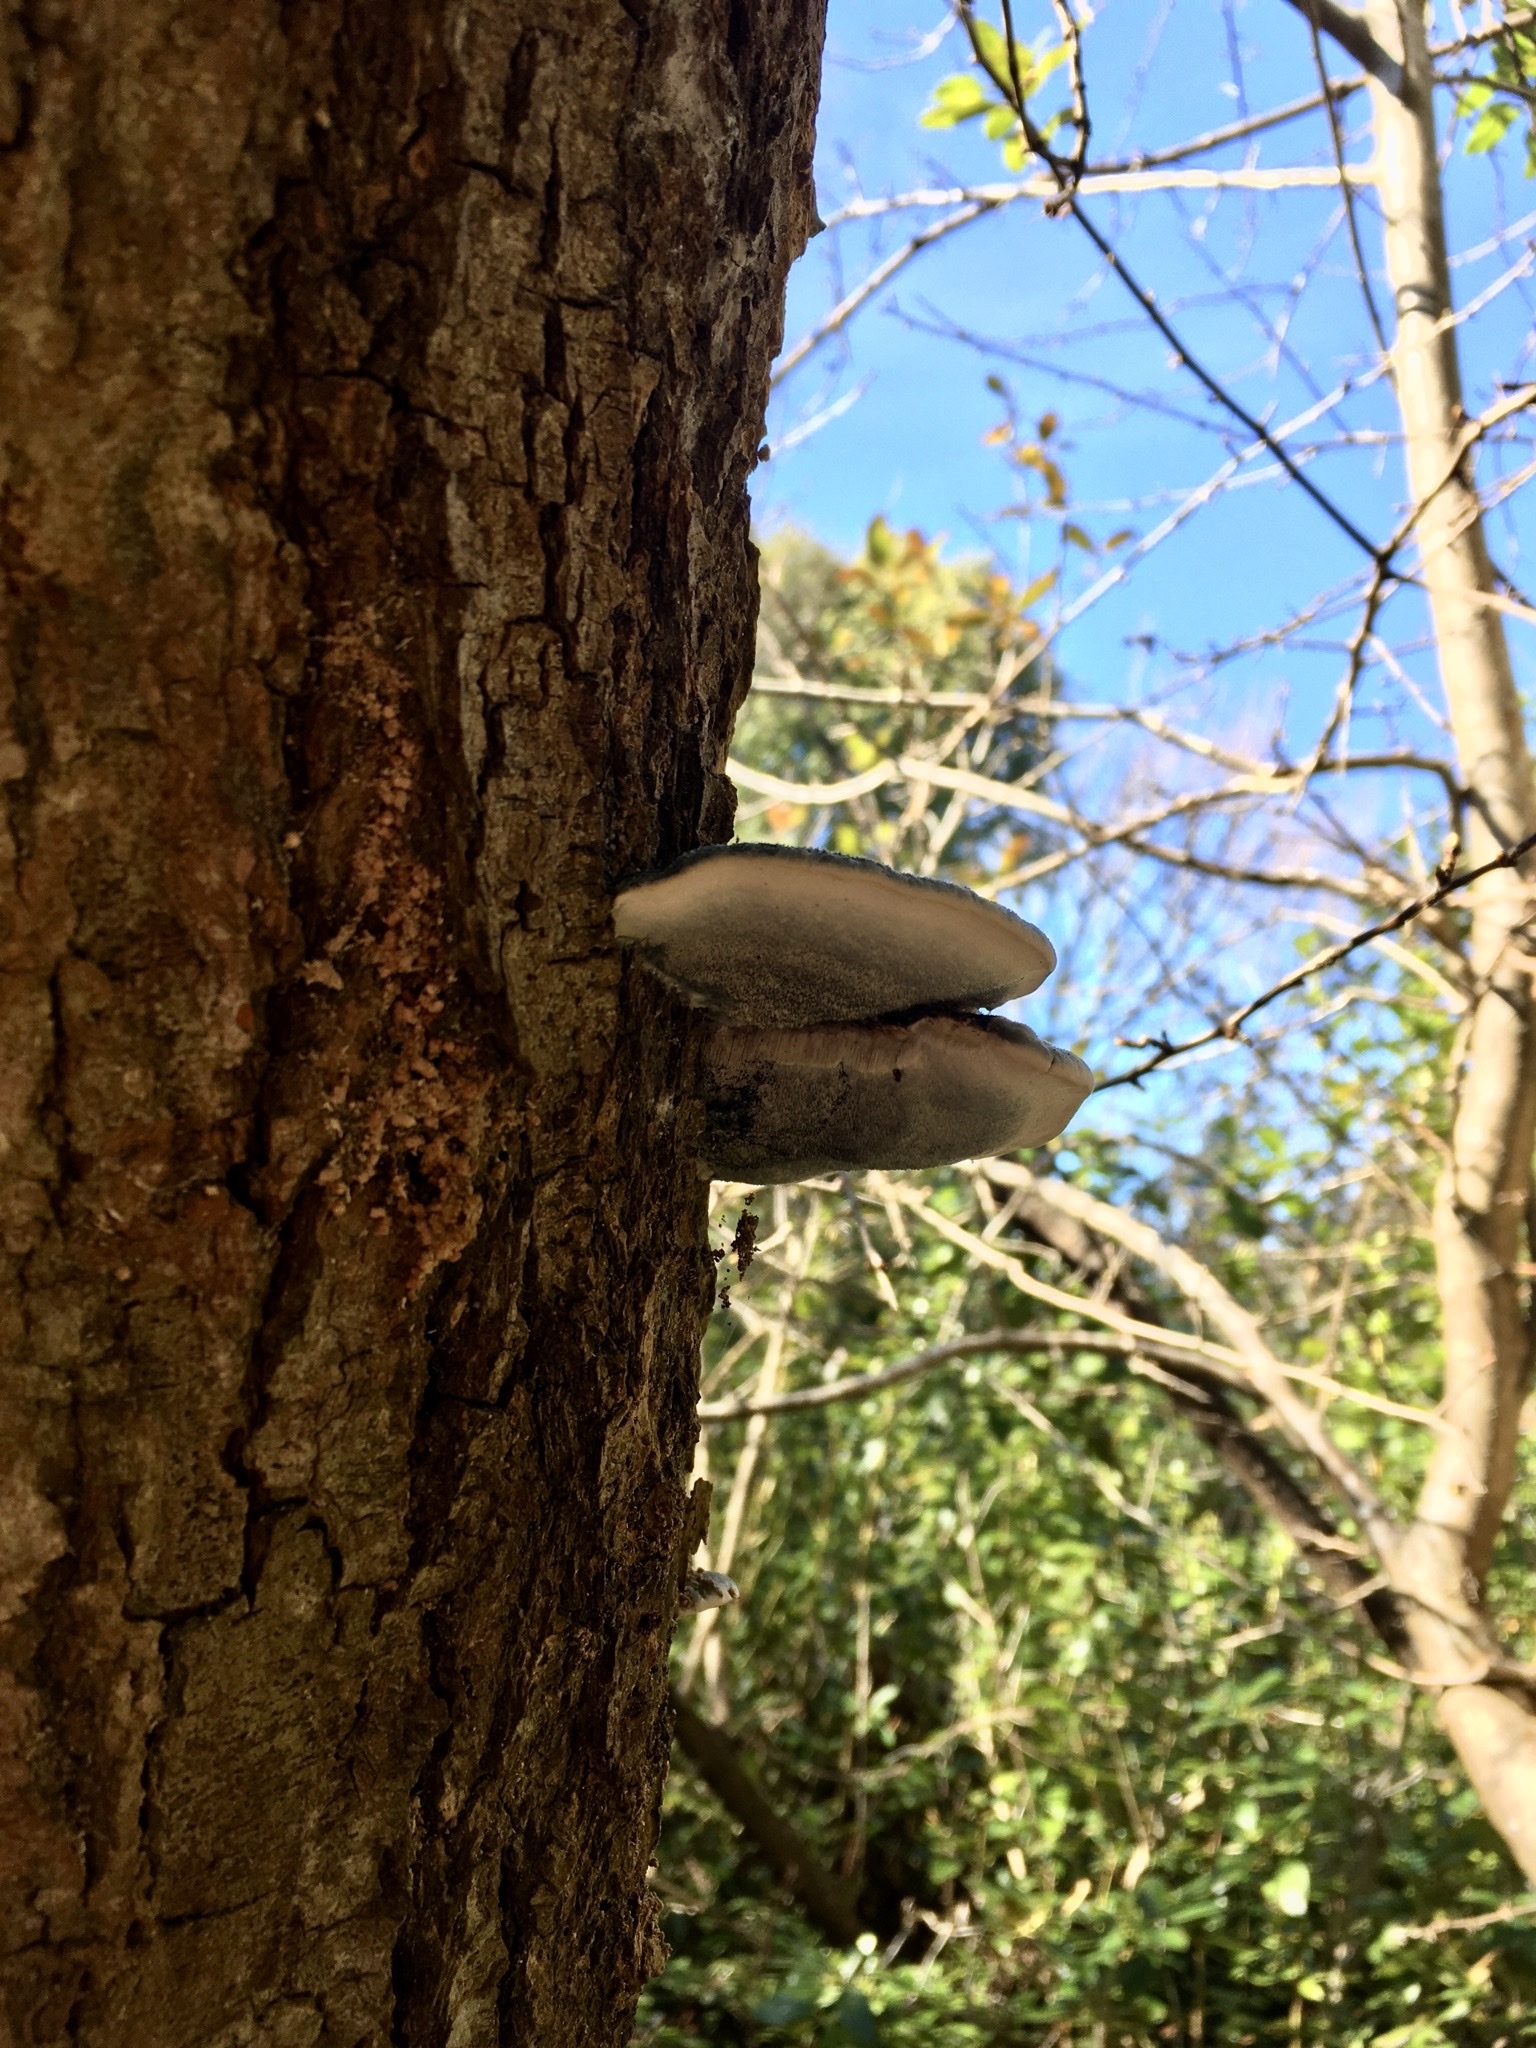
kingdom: Fungi
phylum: Basidiomycota
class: Agaricomycetes
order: Polyporales
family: Incrustoporiaceae
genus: Tyromyces
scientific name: Tyromyces atrostrigosus
